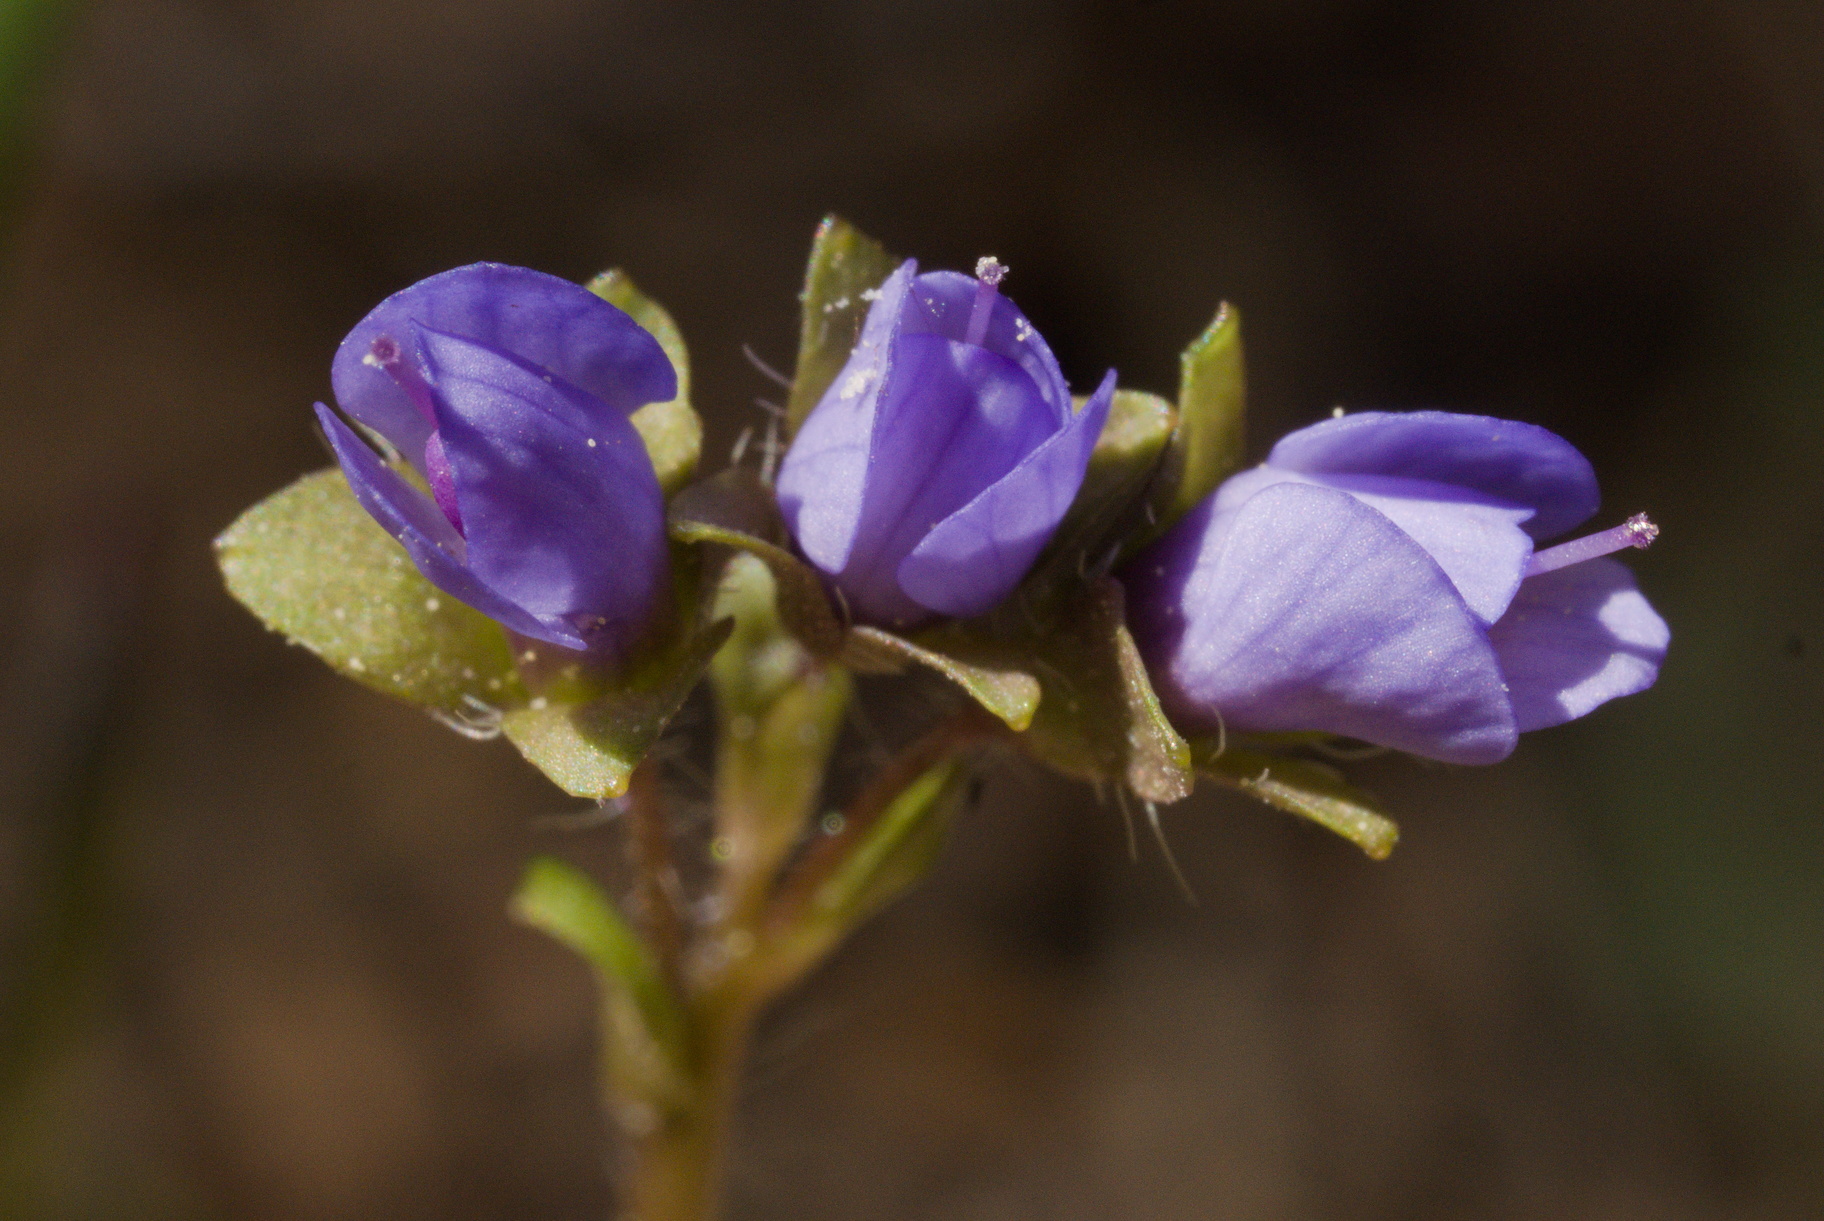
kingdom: Plantae
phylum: Tracheophyta
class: Magnoliopsida
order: Lamiales
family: Plantaginaceae
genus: Synthyris
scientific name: Synthyris reniformis
